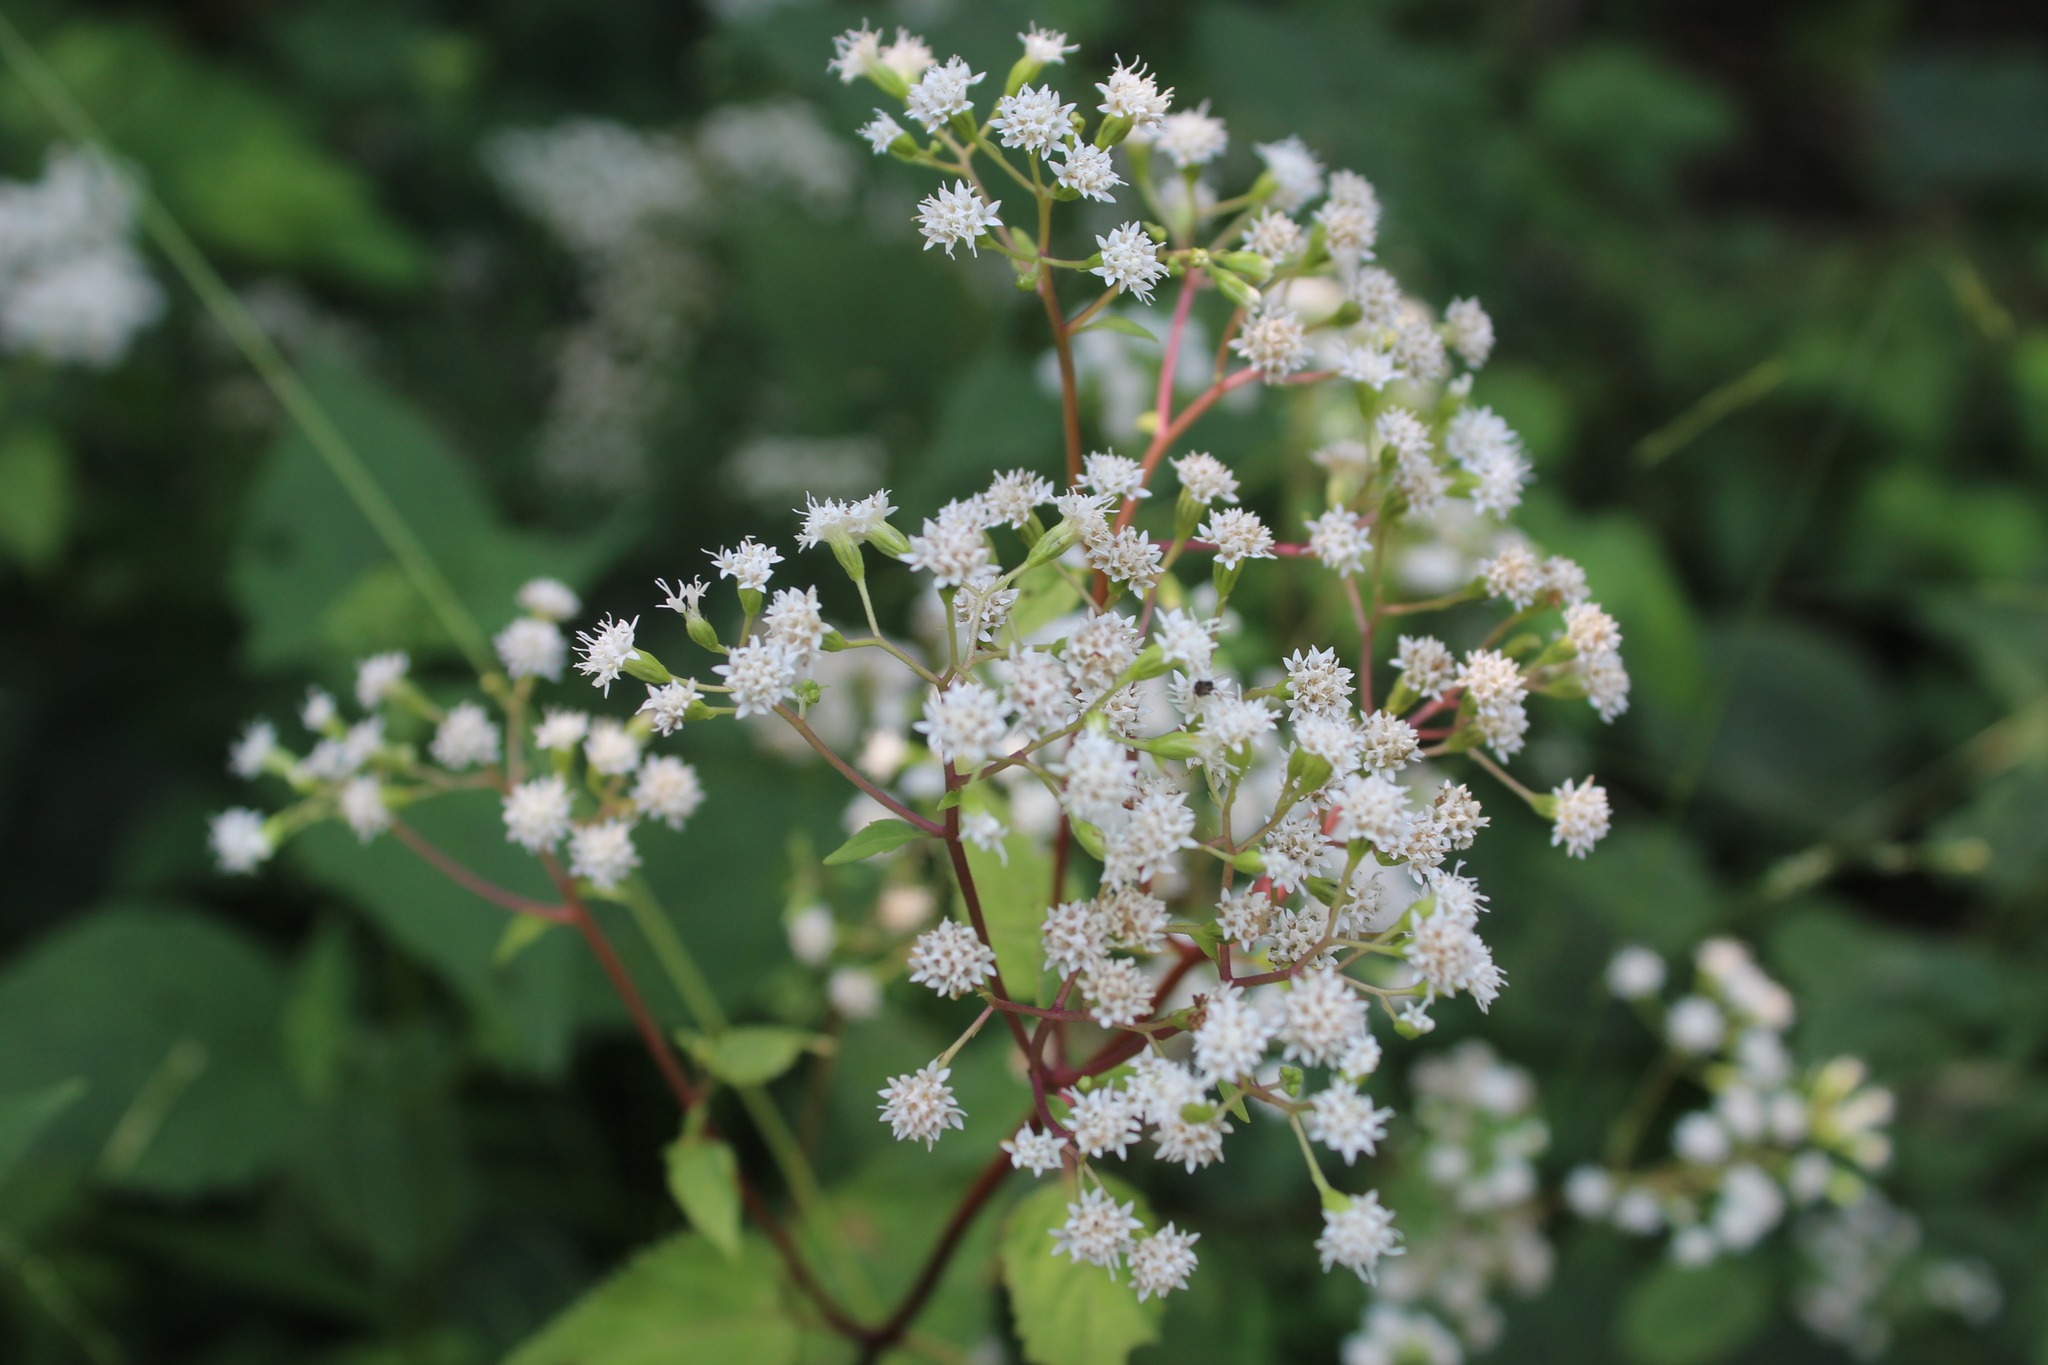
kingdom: Plantae
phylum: Tracheophyta
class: Magnoliopsida
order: Asterales
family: Asteraceae
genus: Ageratina
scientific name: Ageratina altissima
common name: White snakeroot
